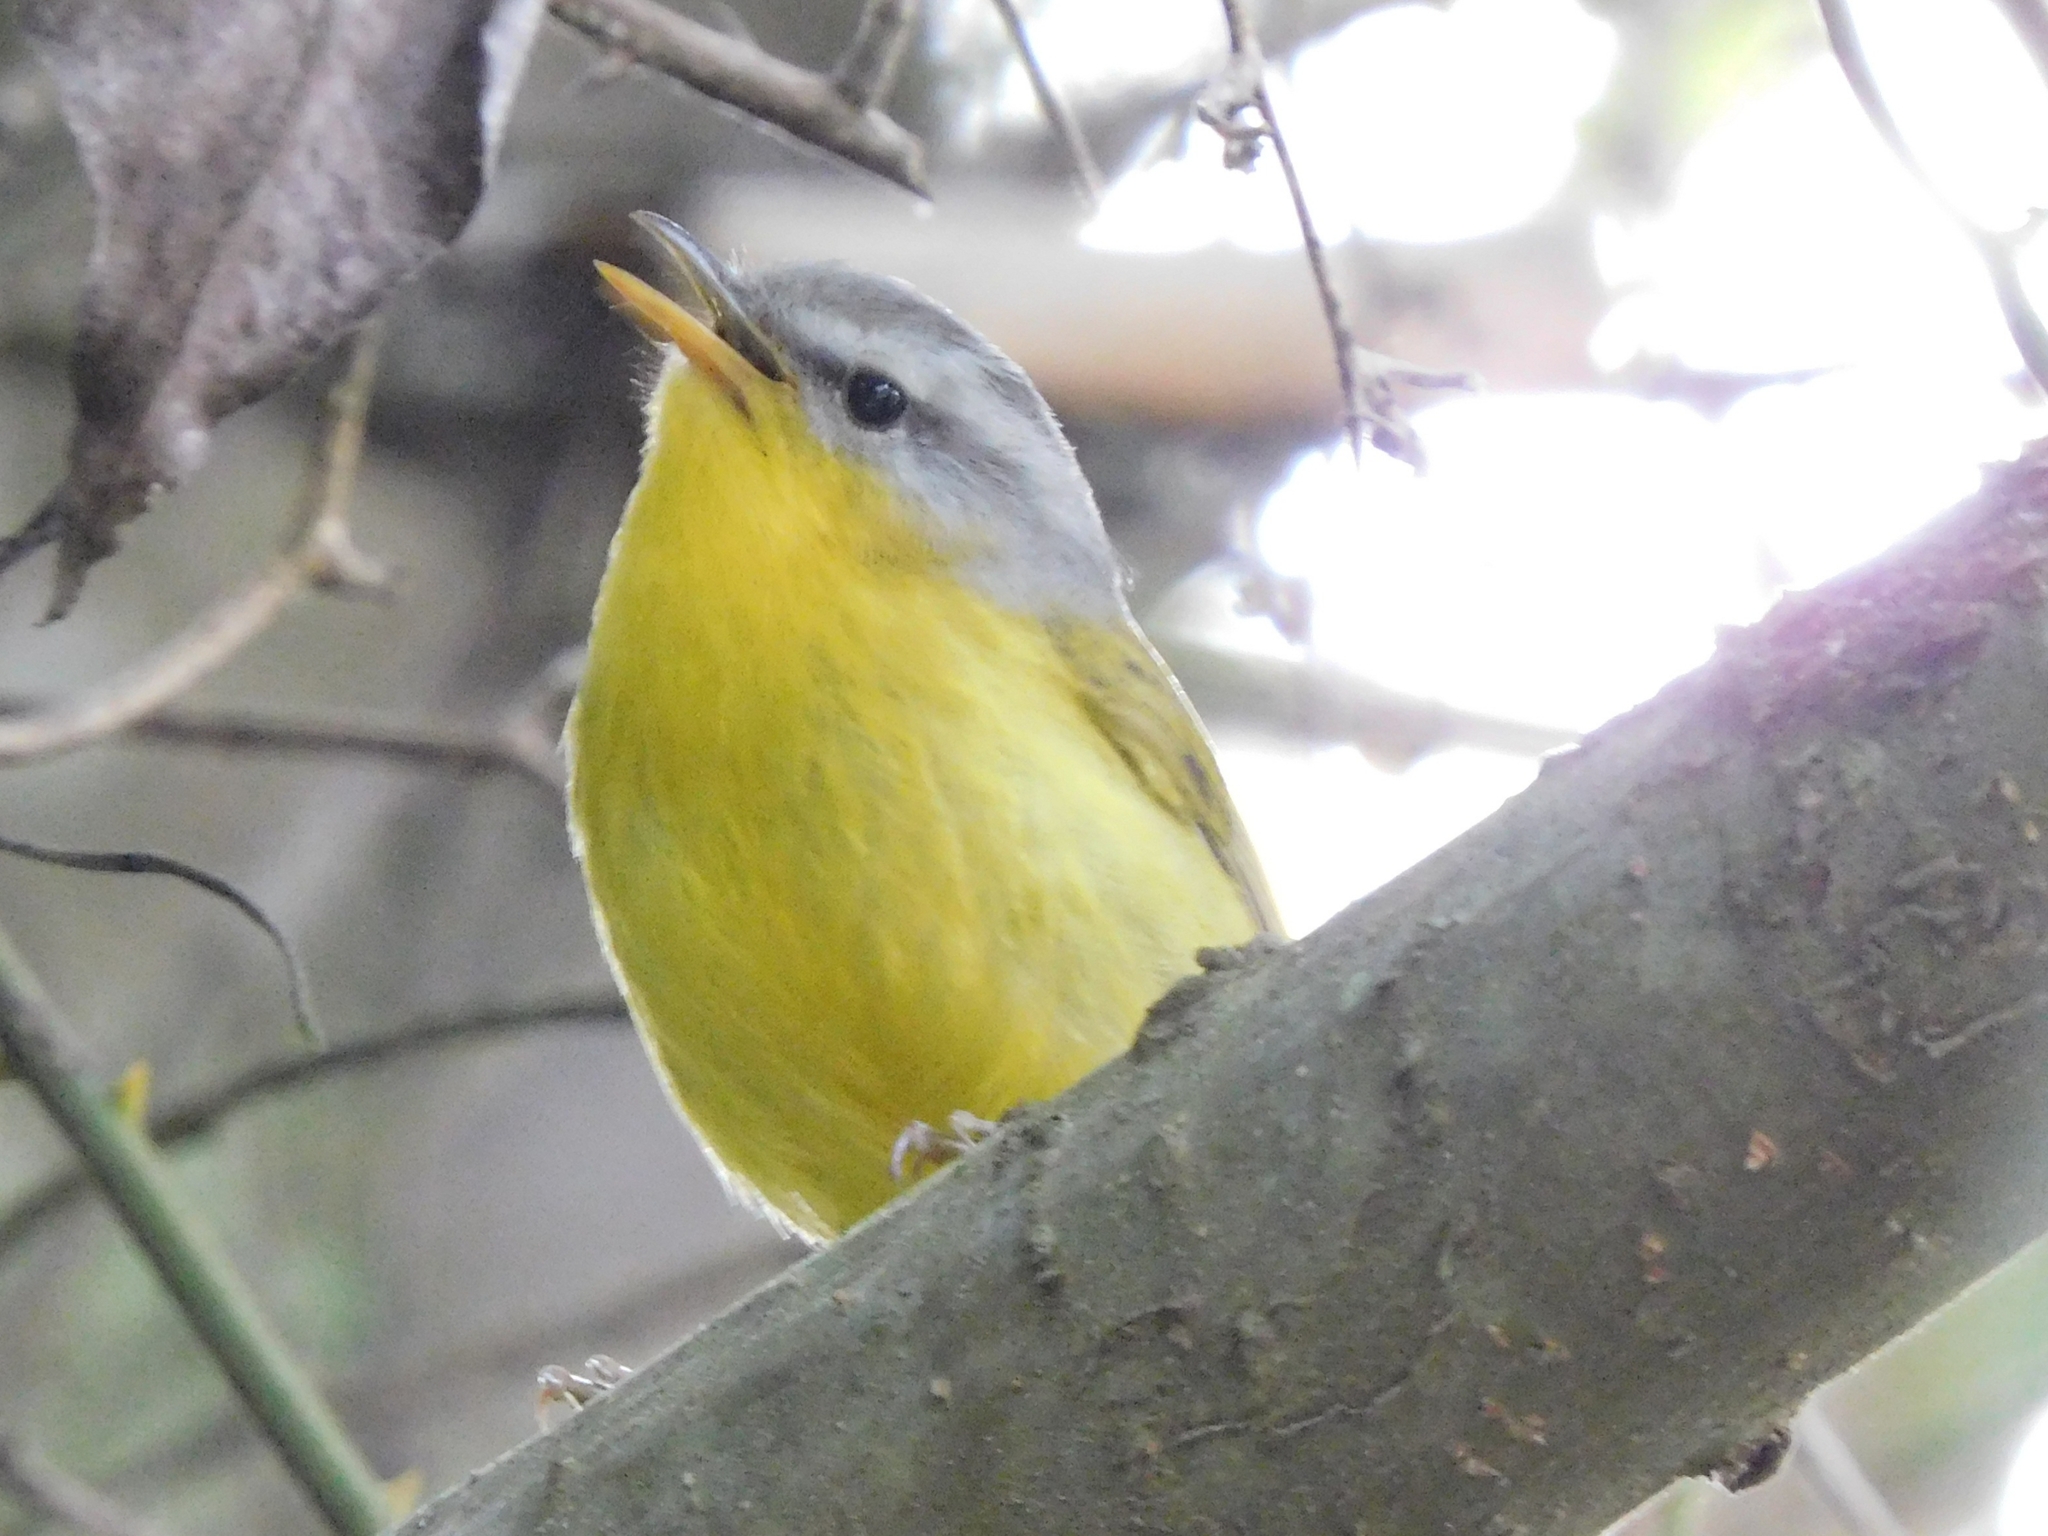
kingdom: Animalia
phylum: Chordata
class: Aves
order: Passeriformes
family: Phylloscopidae
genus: Phylloscopus
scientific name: Phylloscopus xanthoschistos
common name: Grey-hooded warbler
